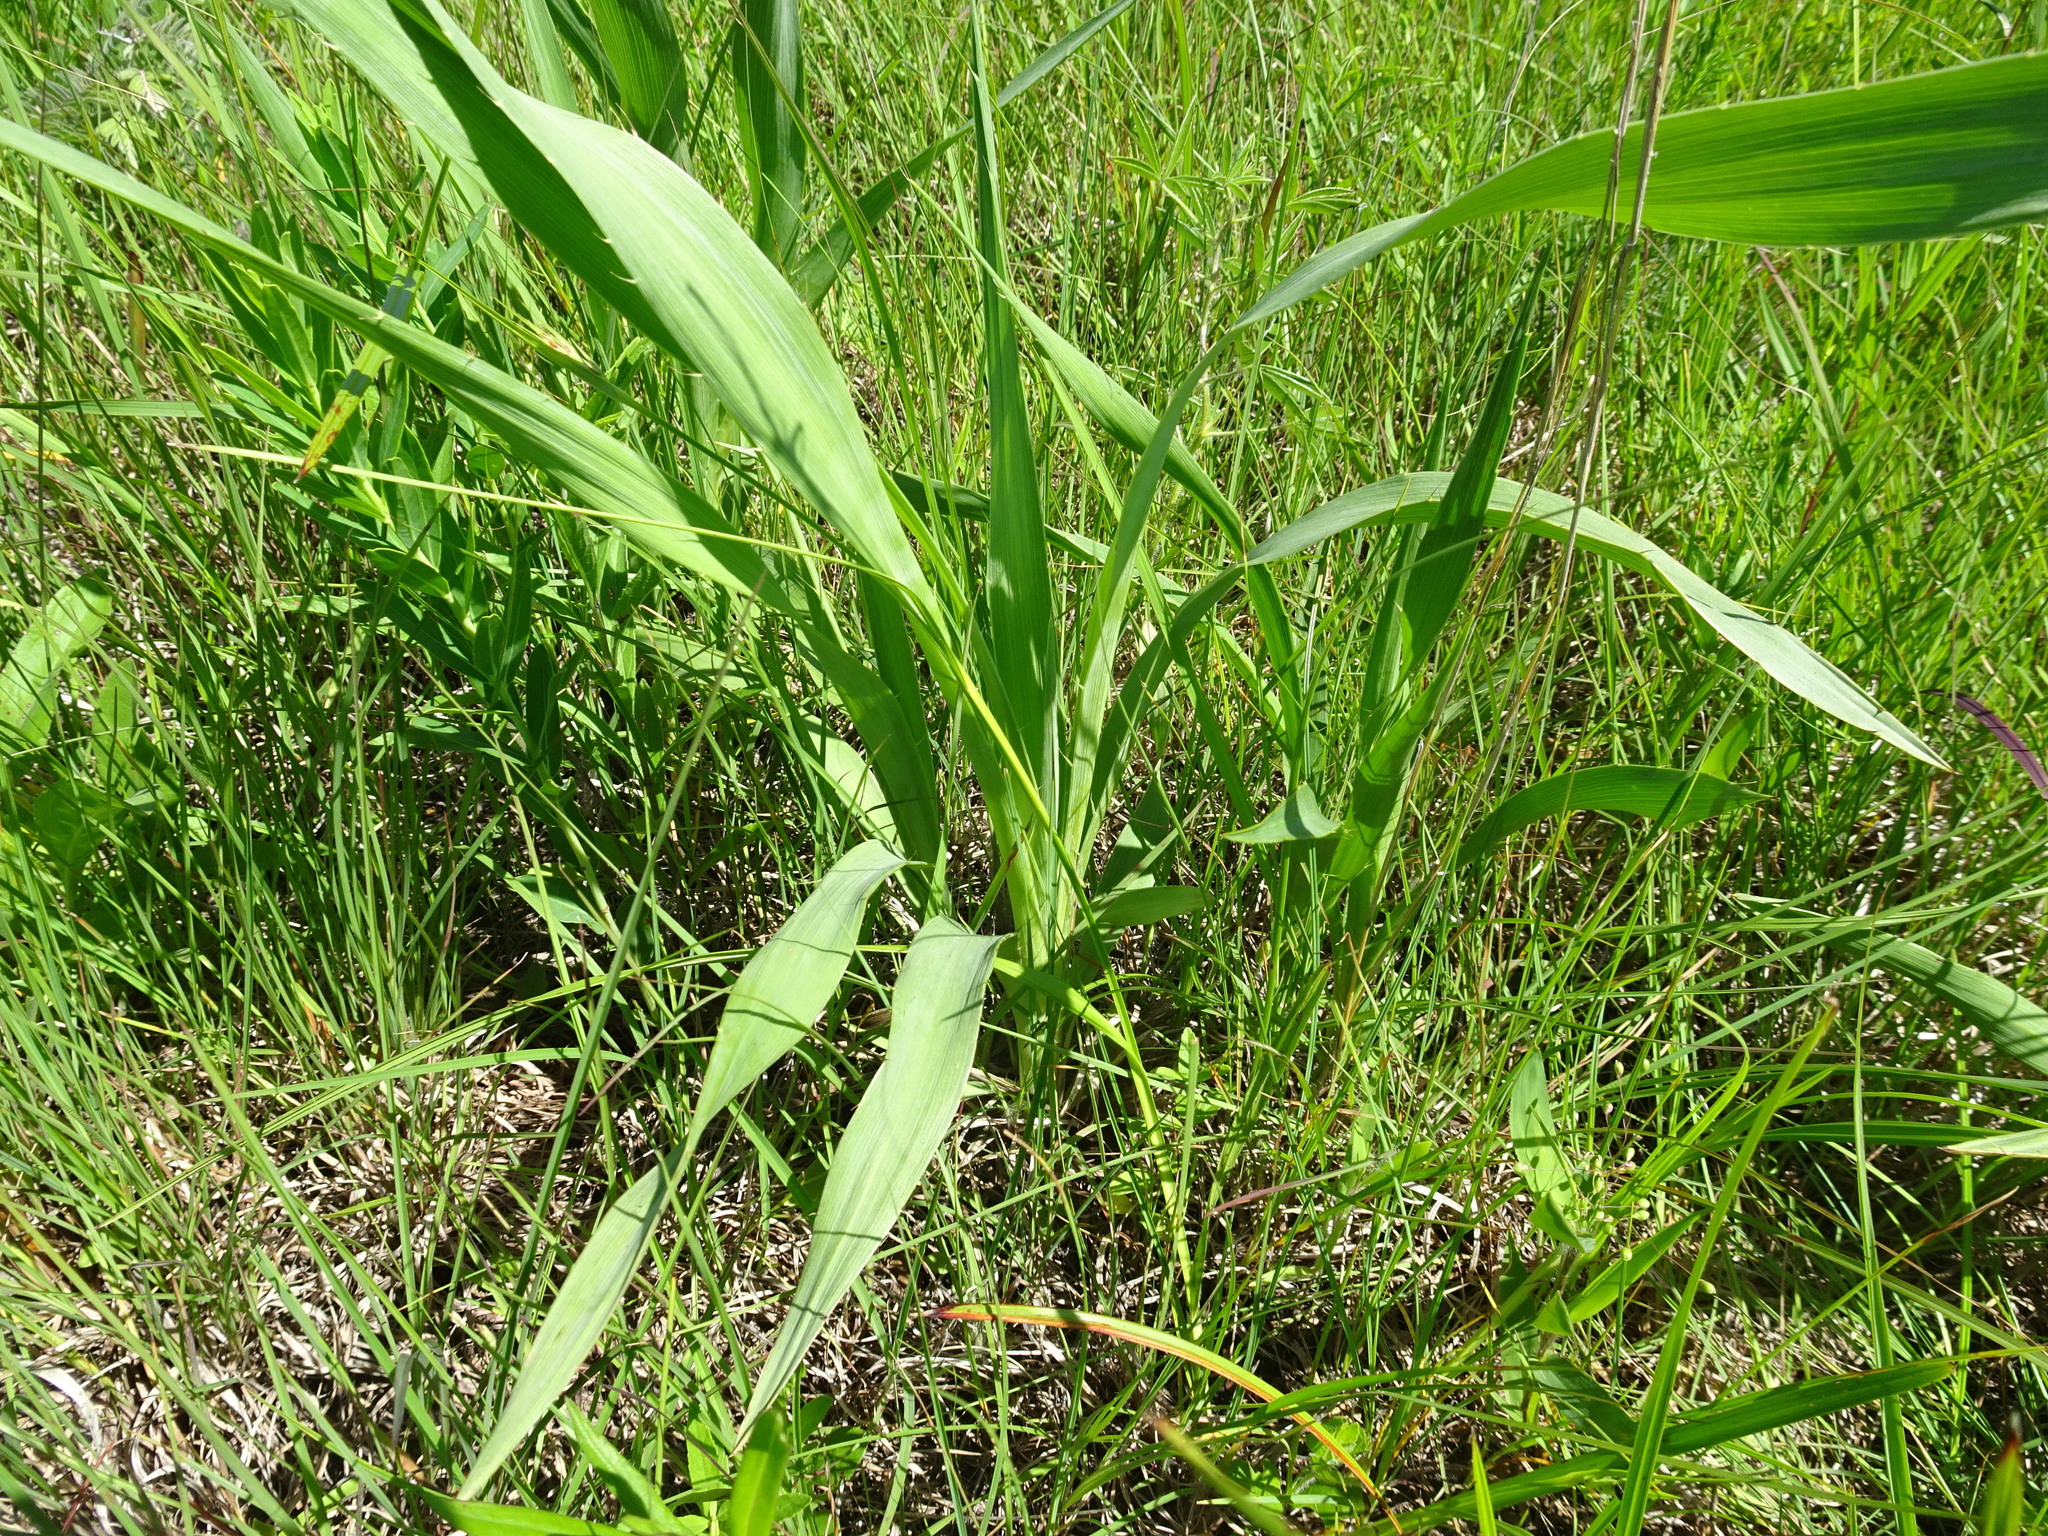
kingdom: Plantae
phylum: Tracheophyta
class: Magnoliopsida
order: Apiales
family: Apiaceae
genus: Eryngium
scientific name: Eryngium yuccifolium
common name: Button eryngo
